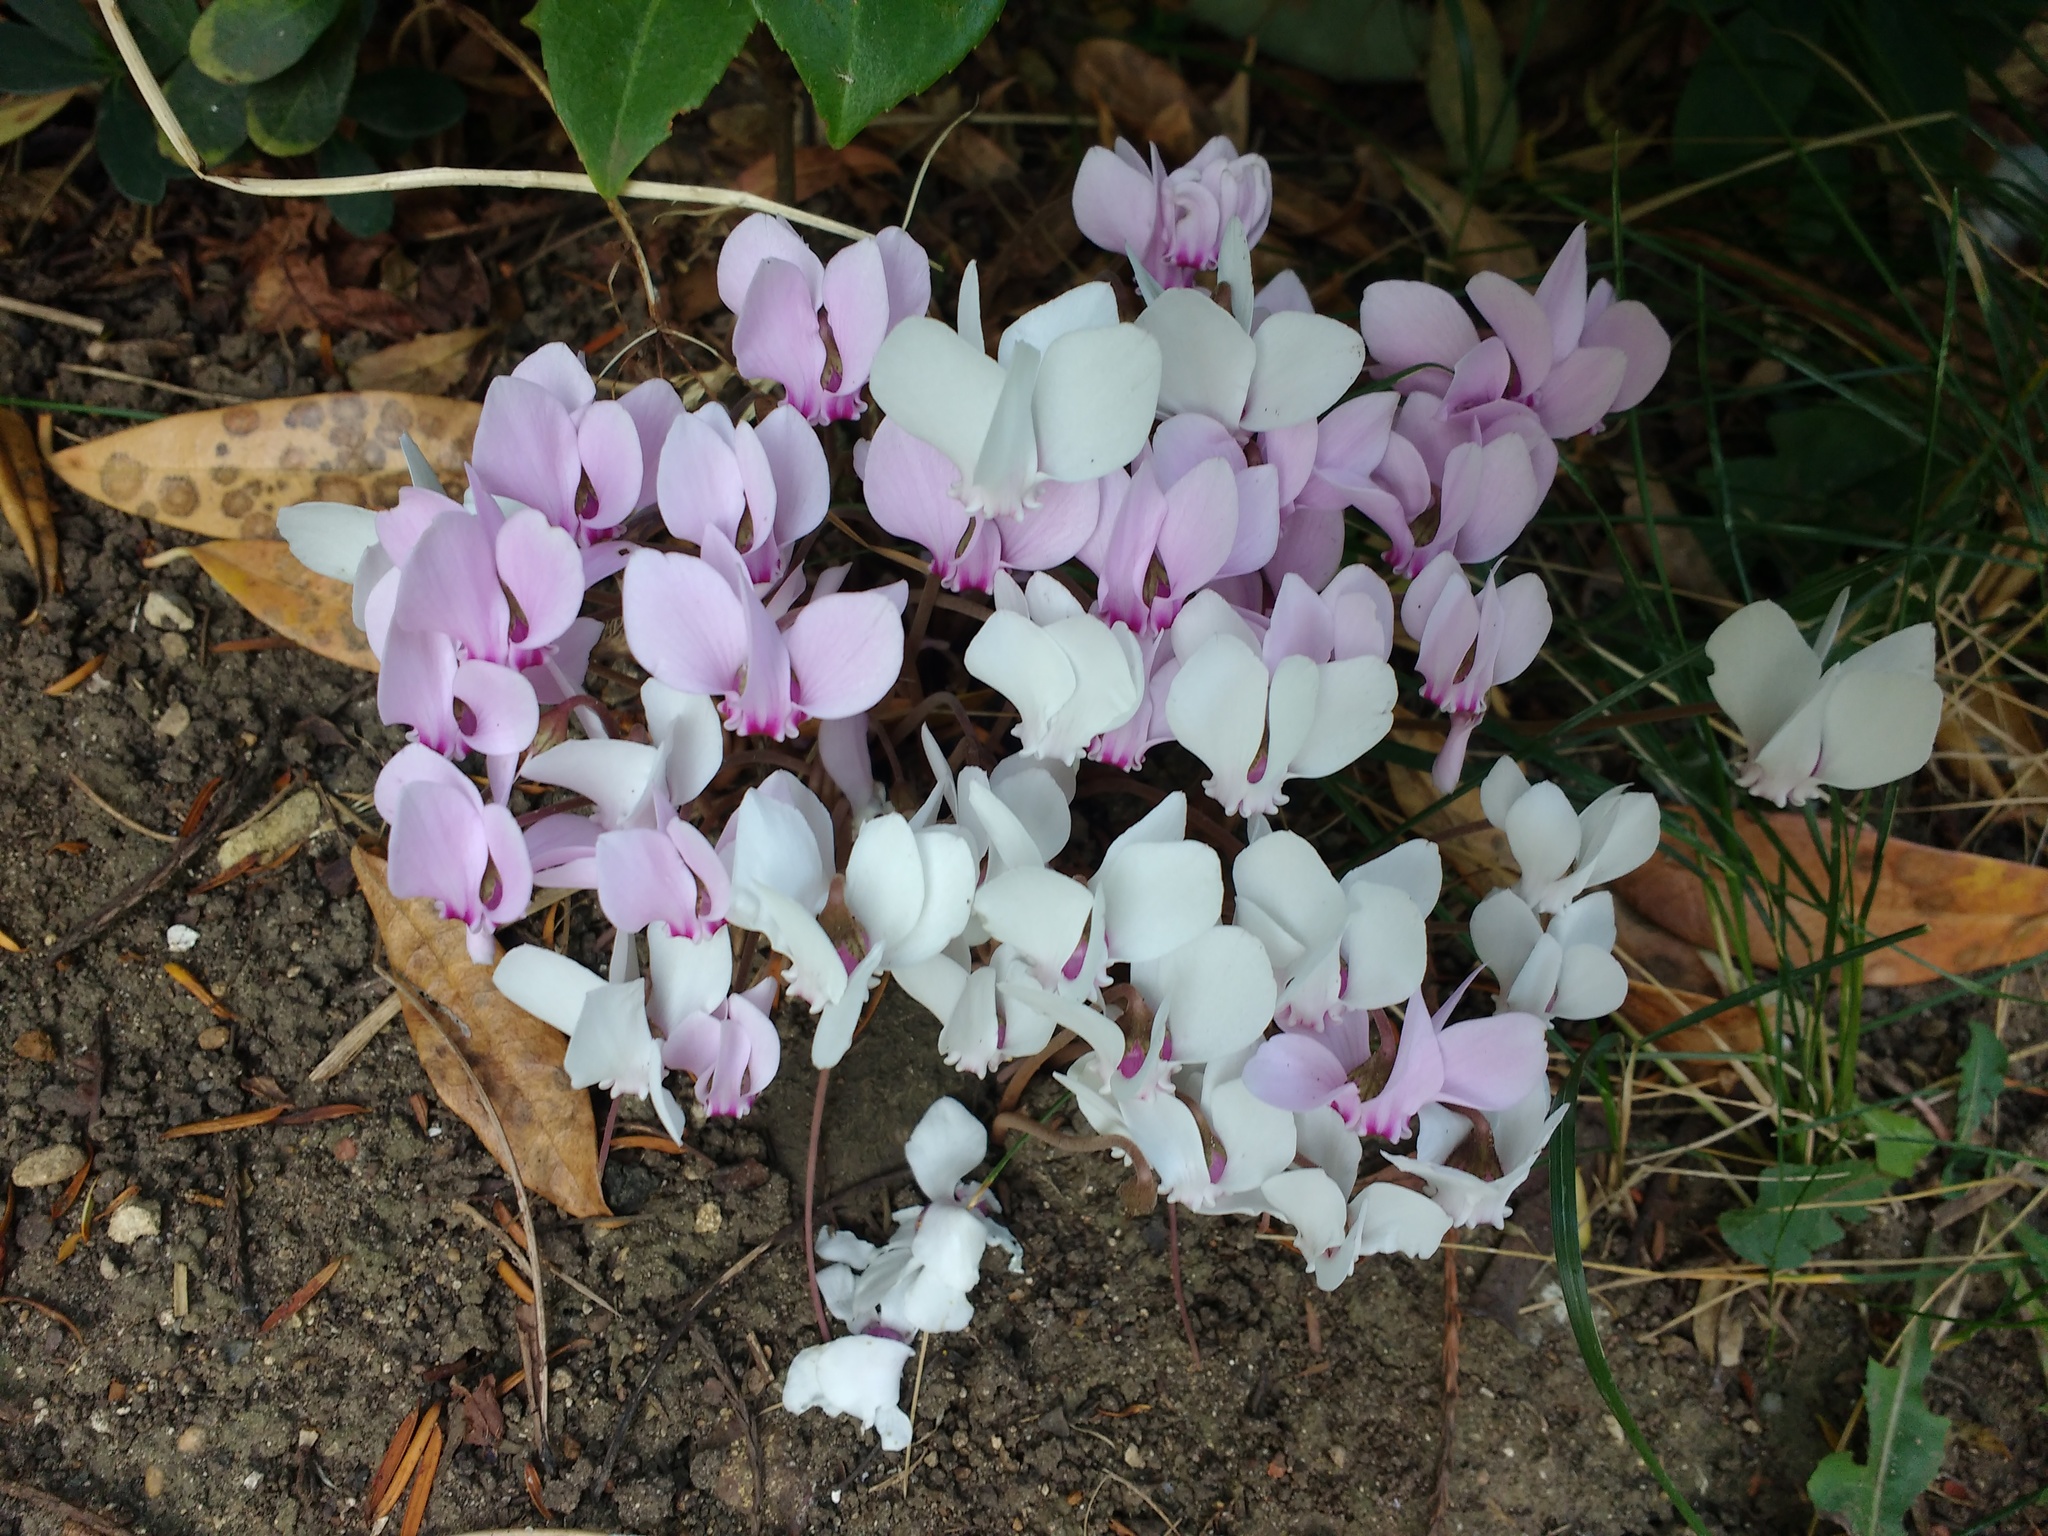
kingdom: Plantae
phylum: Tracheophyta
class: Magnoliopsida
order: Ericales
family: Primulaceae
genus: Cyclamen
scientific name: Cyclamen hederifolium
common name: Sowbread
